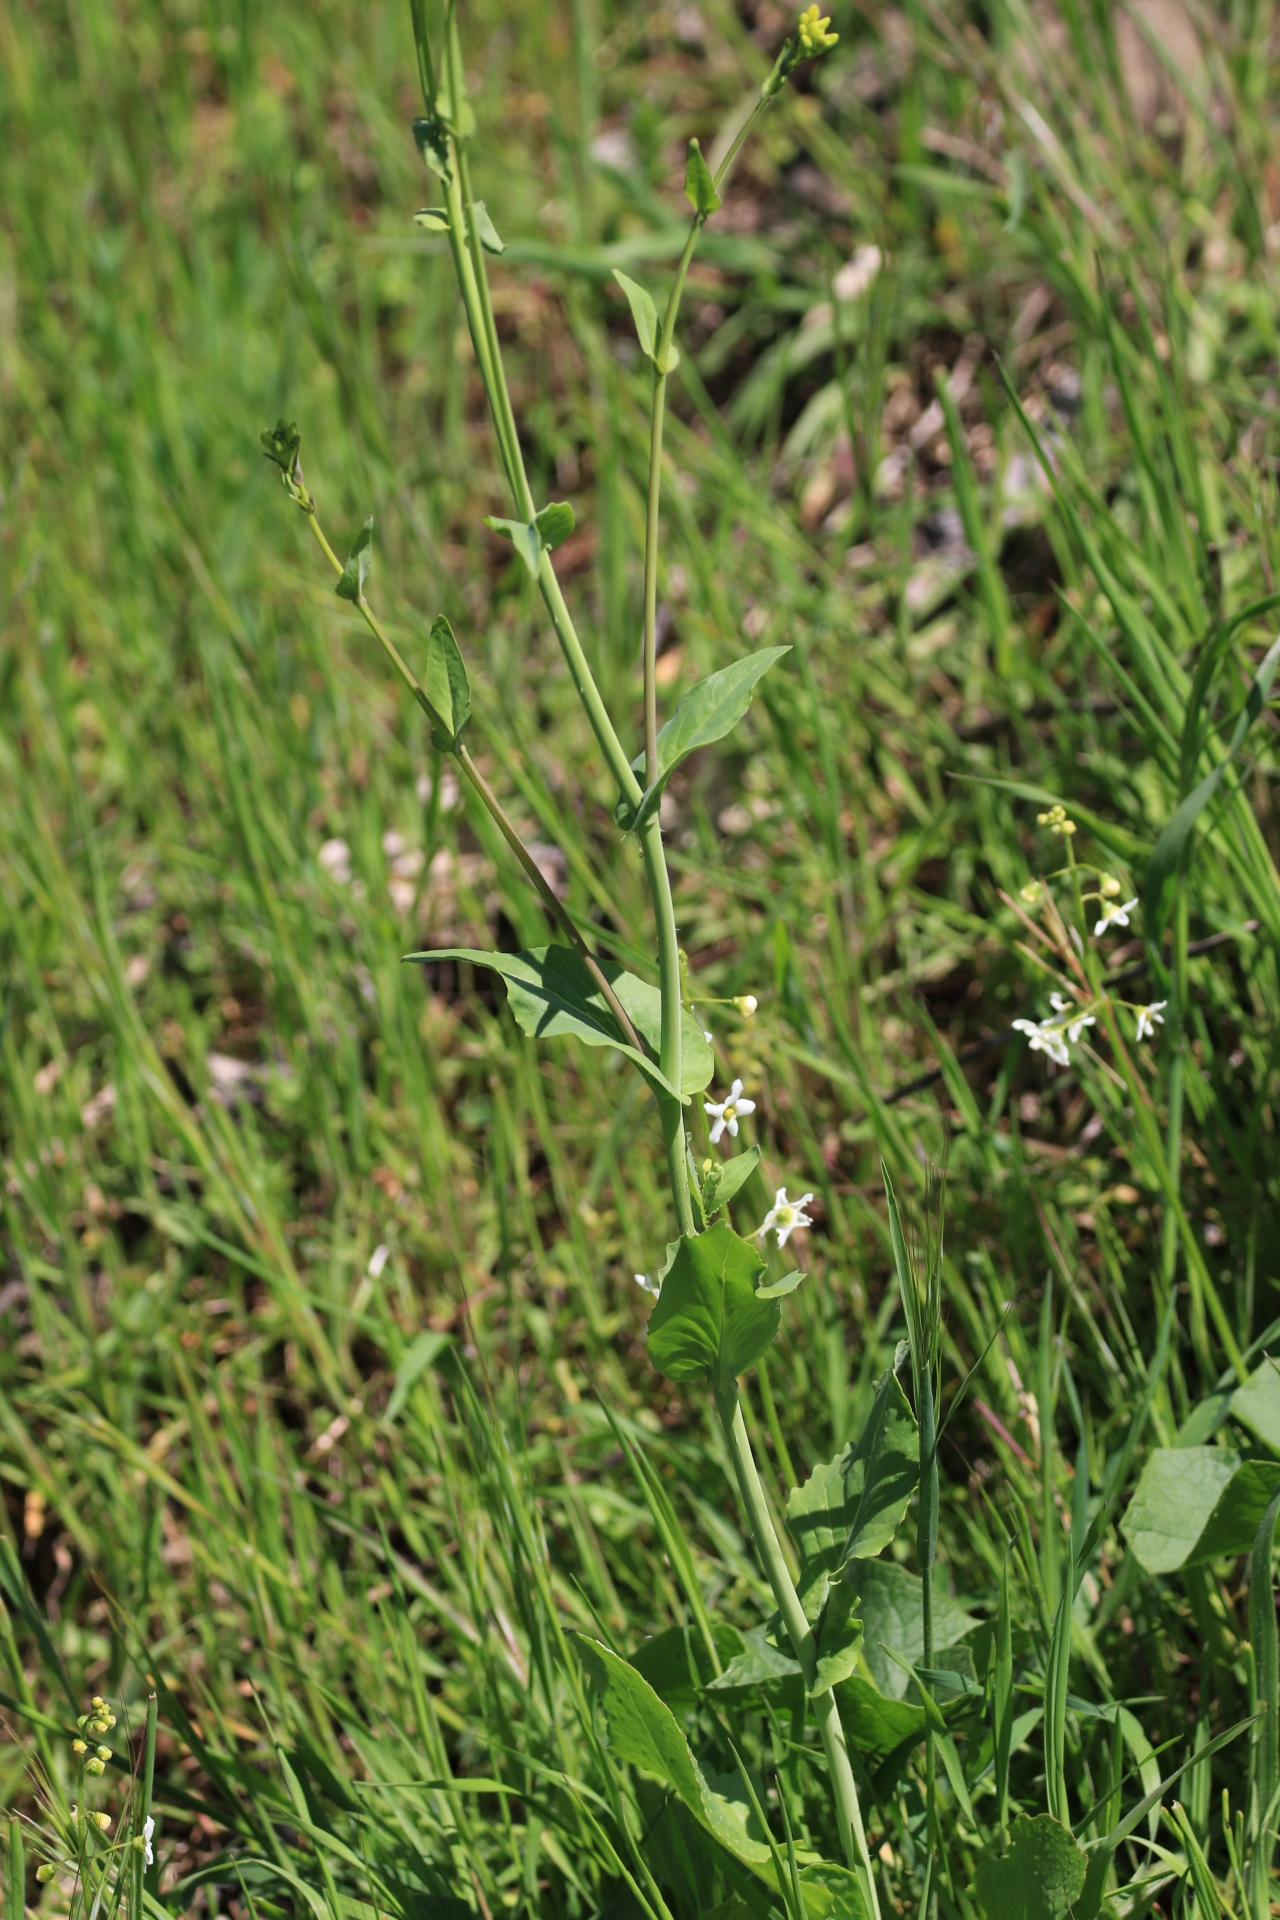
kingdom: Plantae
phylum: Tracheophyta
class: Magnoliopsida
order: Brassicales
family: Brassicaceae
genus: Brassica
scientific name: Brassica rapa
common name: Field mustard
